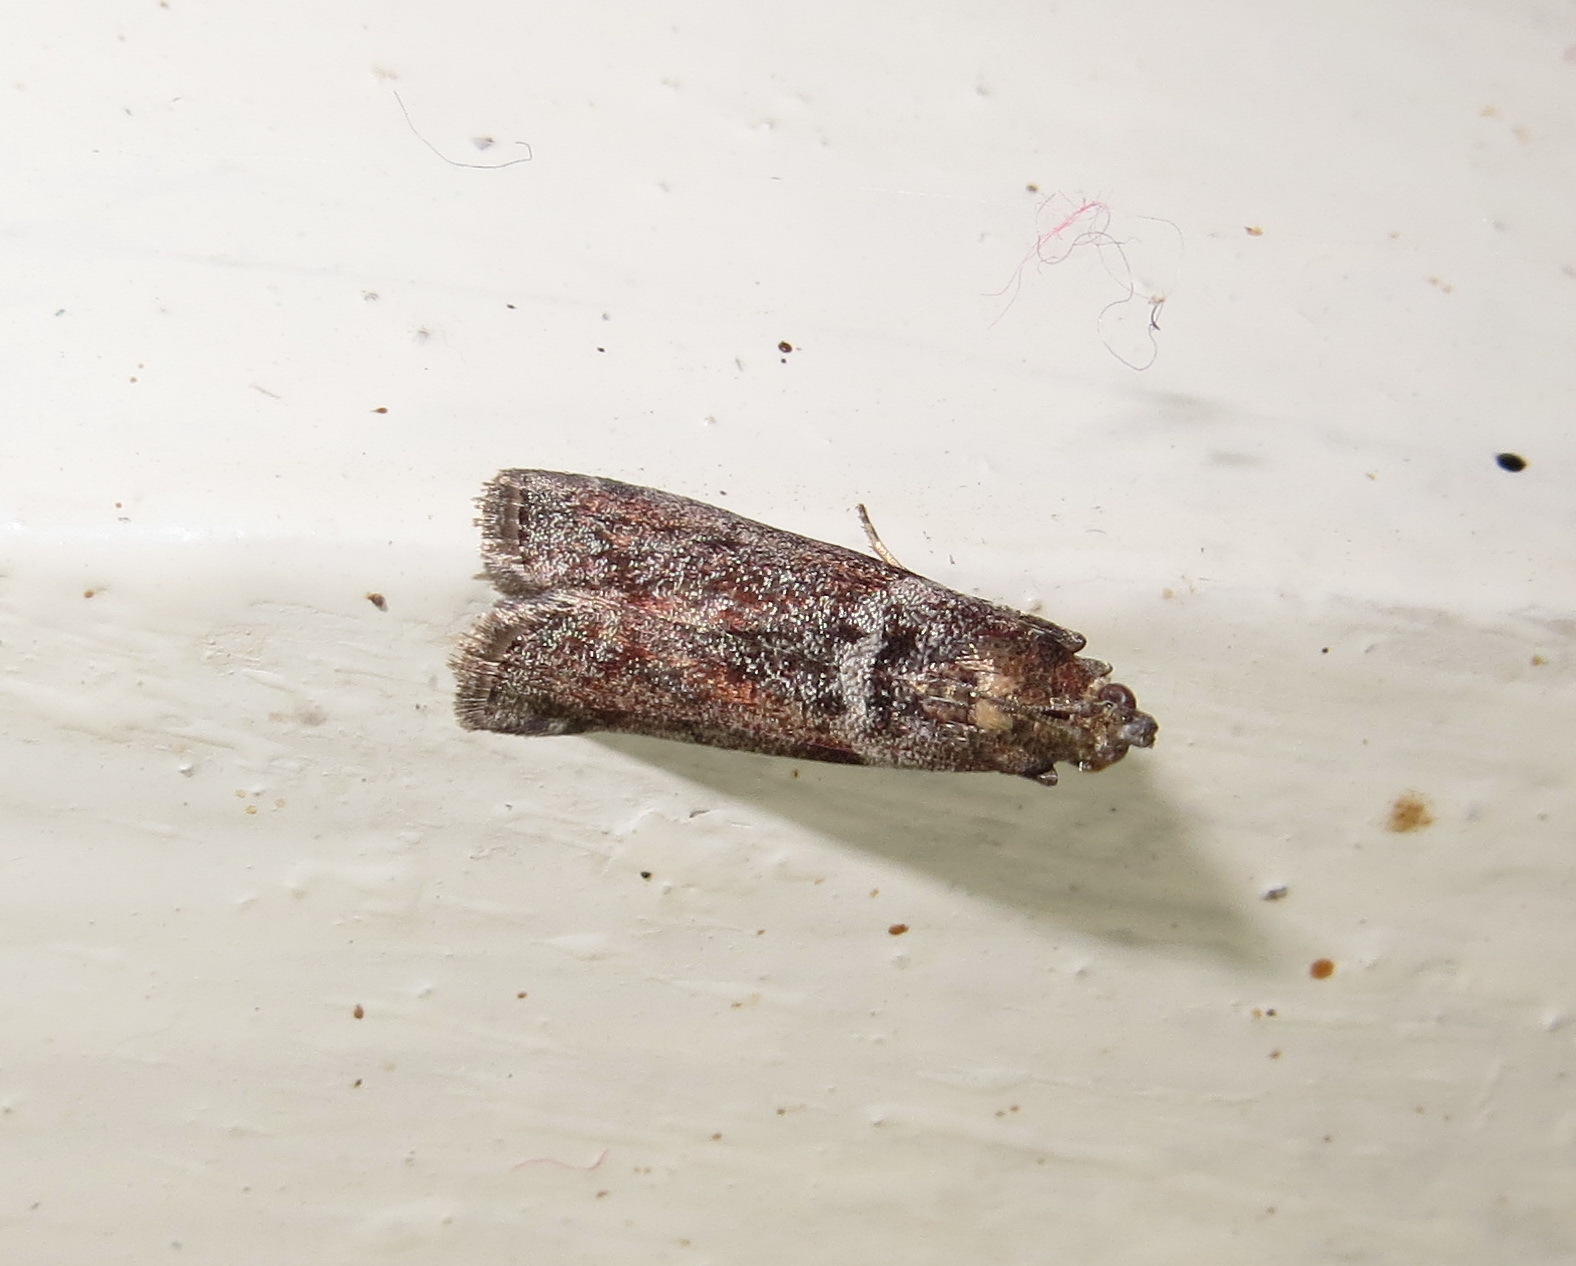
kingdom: Animalia
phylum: Arthropoda
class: Insecta
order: Lepidoptera
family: Pyralidae
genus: Oncocera
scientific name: Oncocera Laodamia faecella
